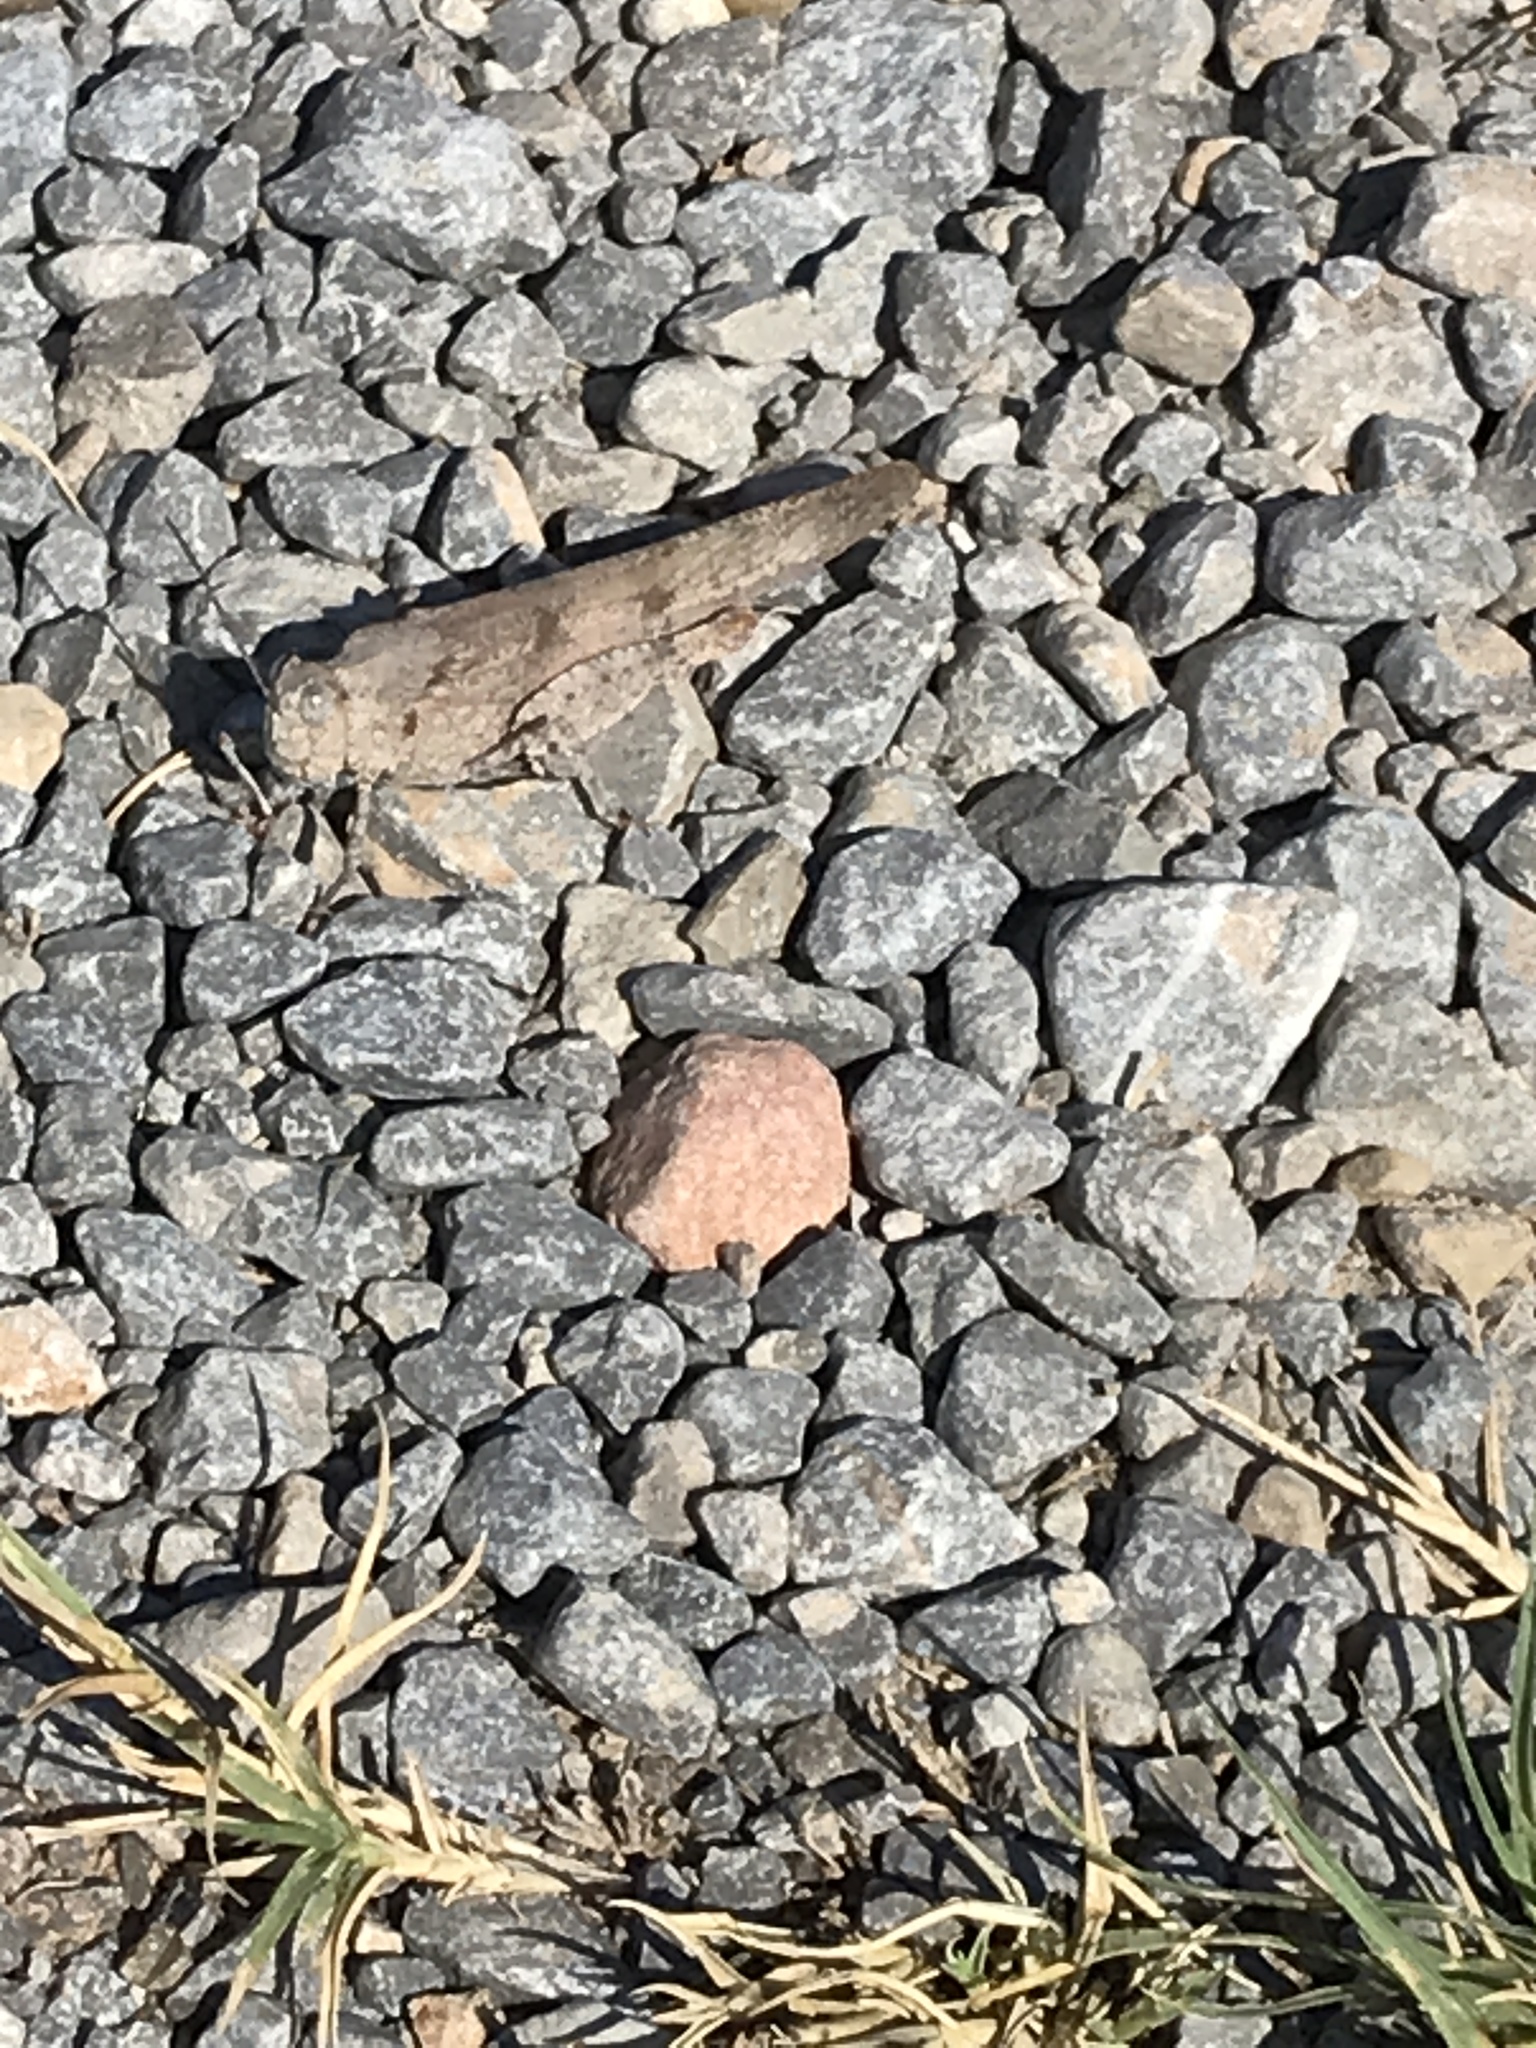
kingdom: Animalia
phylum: Arthropoda
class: Insecta
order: Orthoptera
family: Acrididae
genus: Dissosteira
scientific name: Dissosteira carolina
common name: Carolina grasshopper
